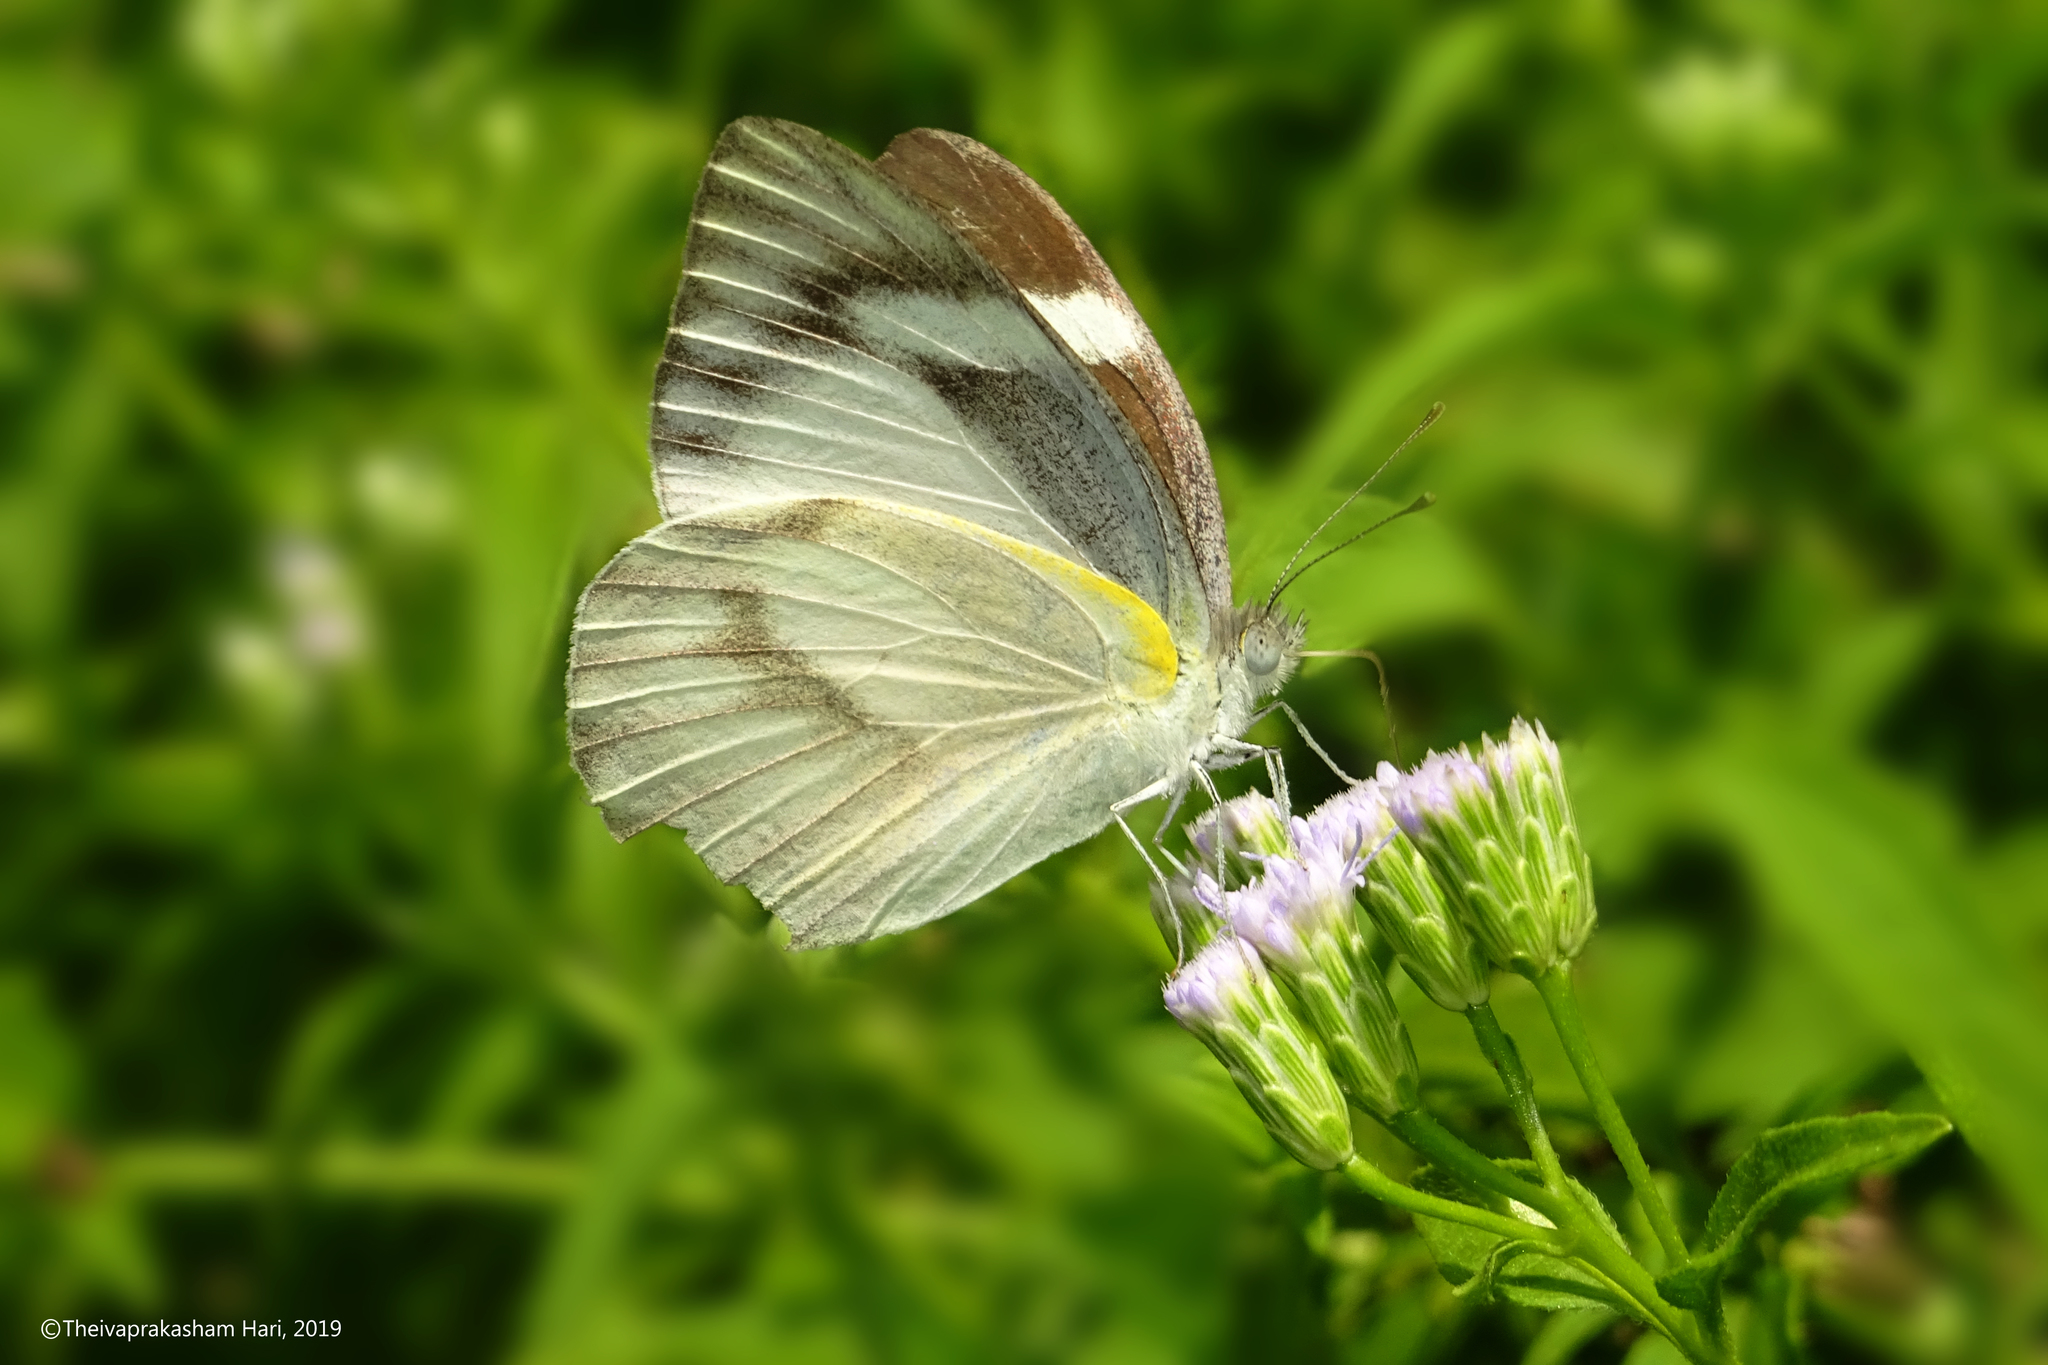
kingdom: Animalia
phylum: Arthropoda
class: Insecta
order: Lepidoptera
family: Pieridae
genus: Appias
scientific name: Appias libythea
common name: Striped albatross
